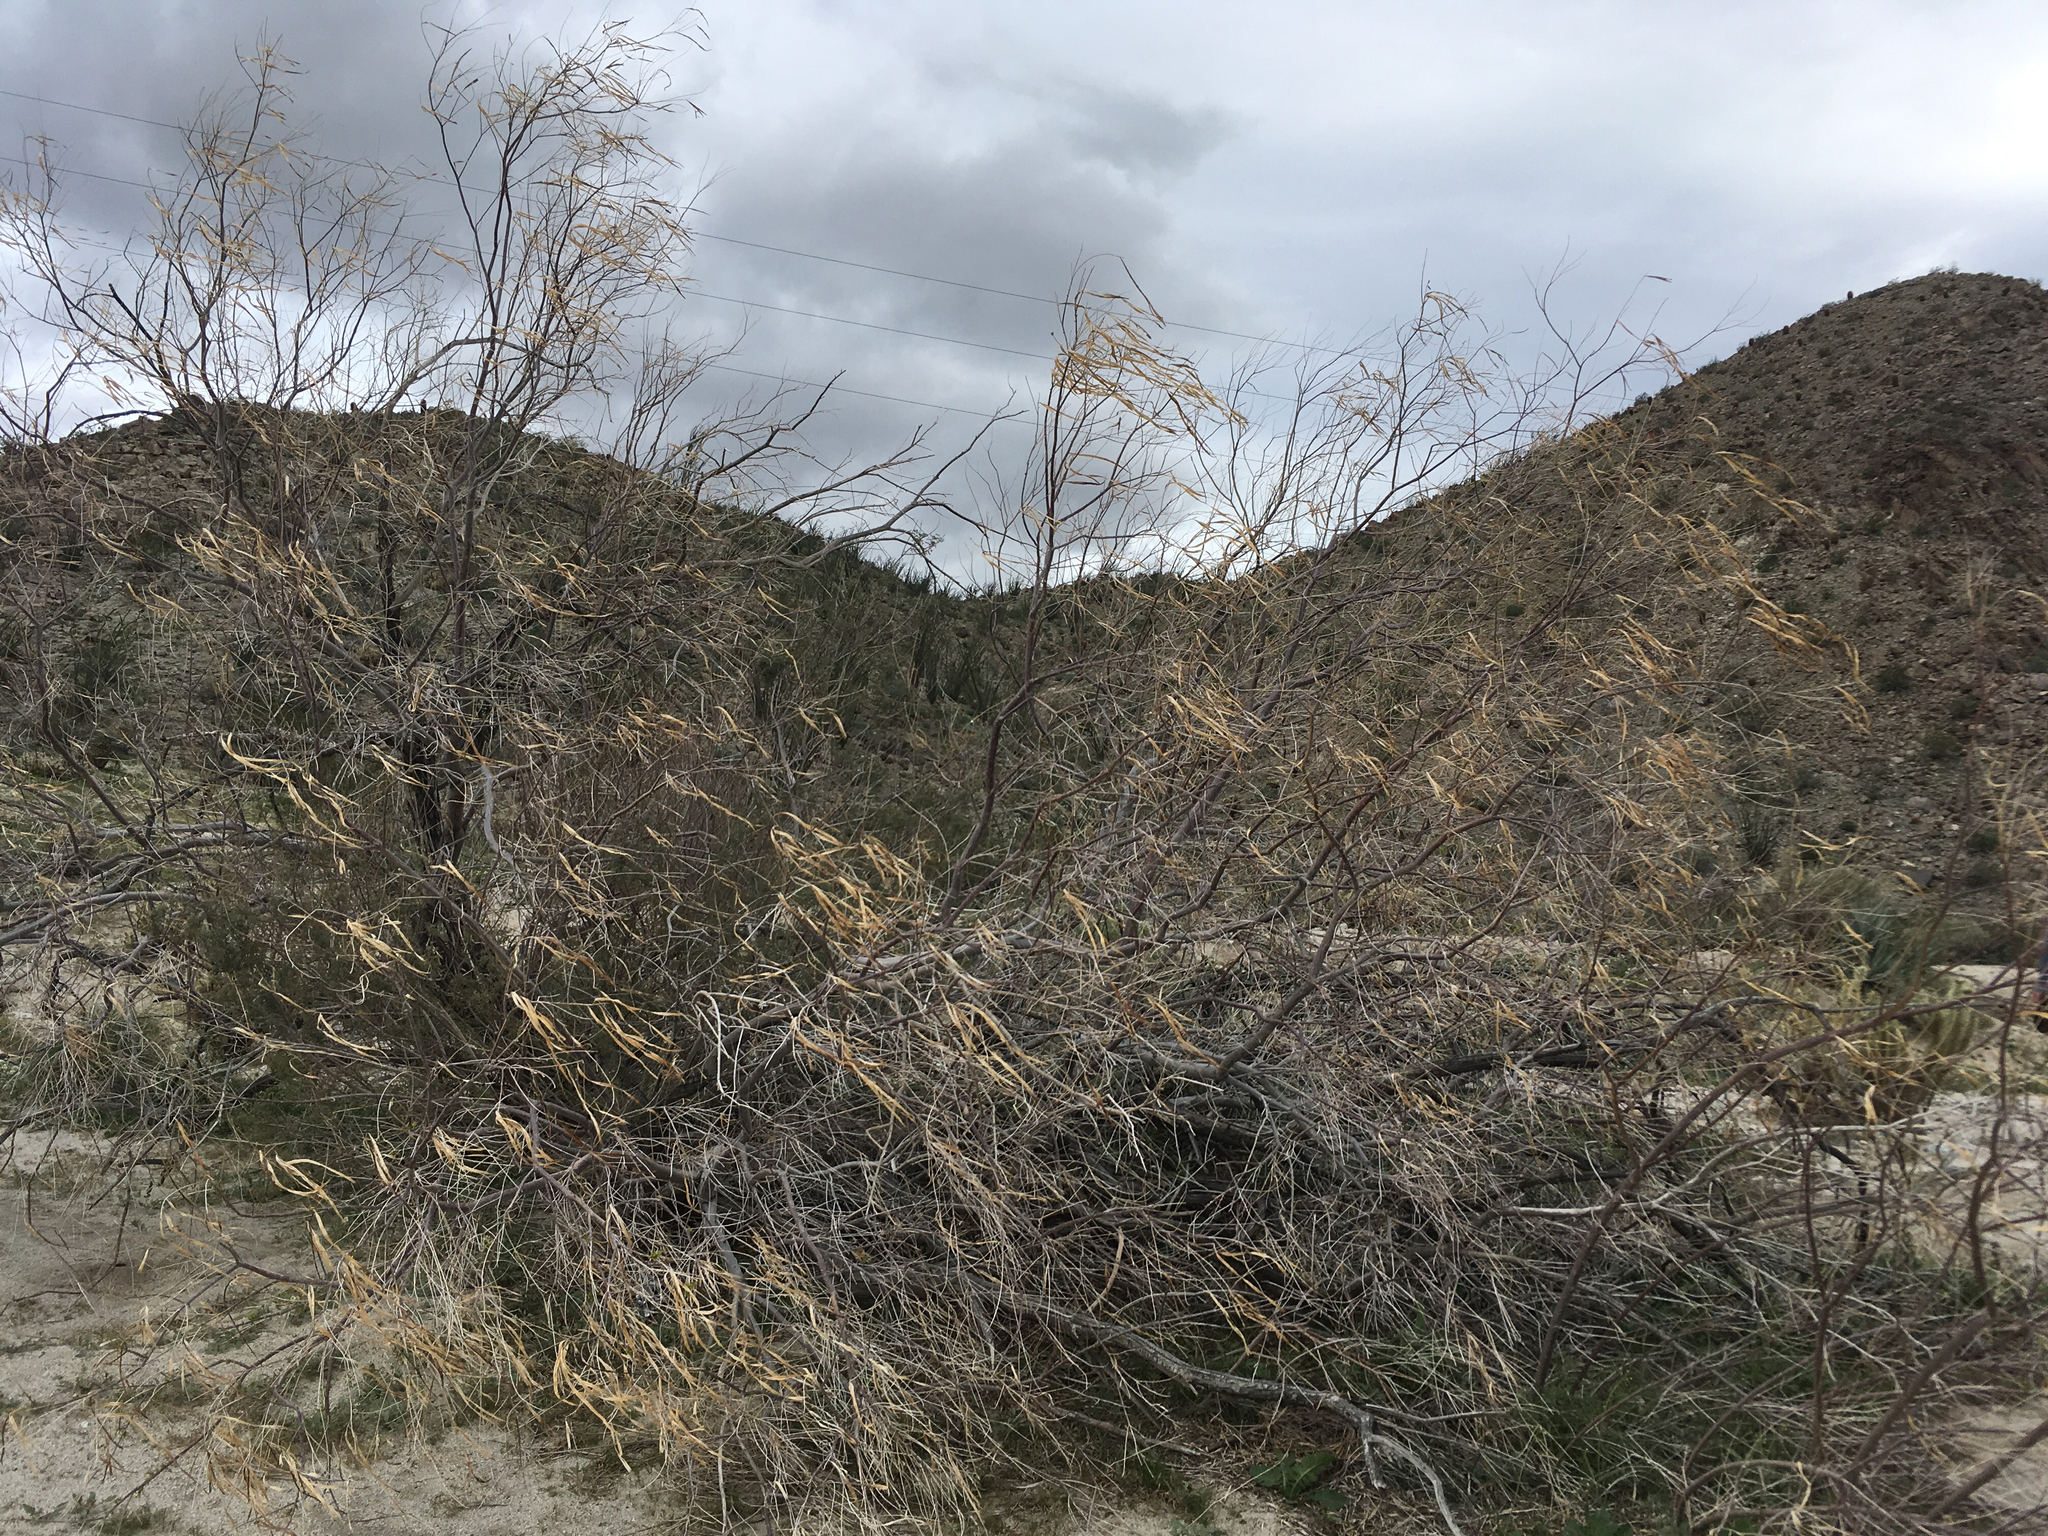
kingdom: Plantae
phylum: Tracheophyta
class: Magnoliopsida
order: Lamiales
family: Bignoniaceae
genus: Chilopsis
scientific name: Chilopsis linearis
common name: Desert-willow
